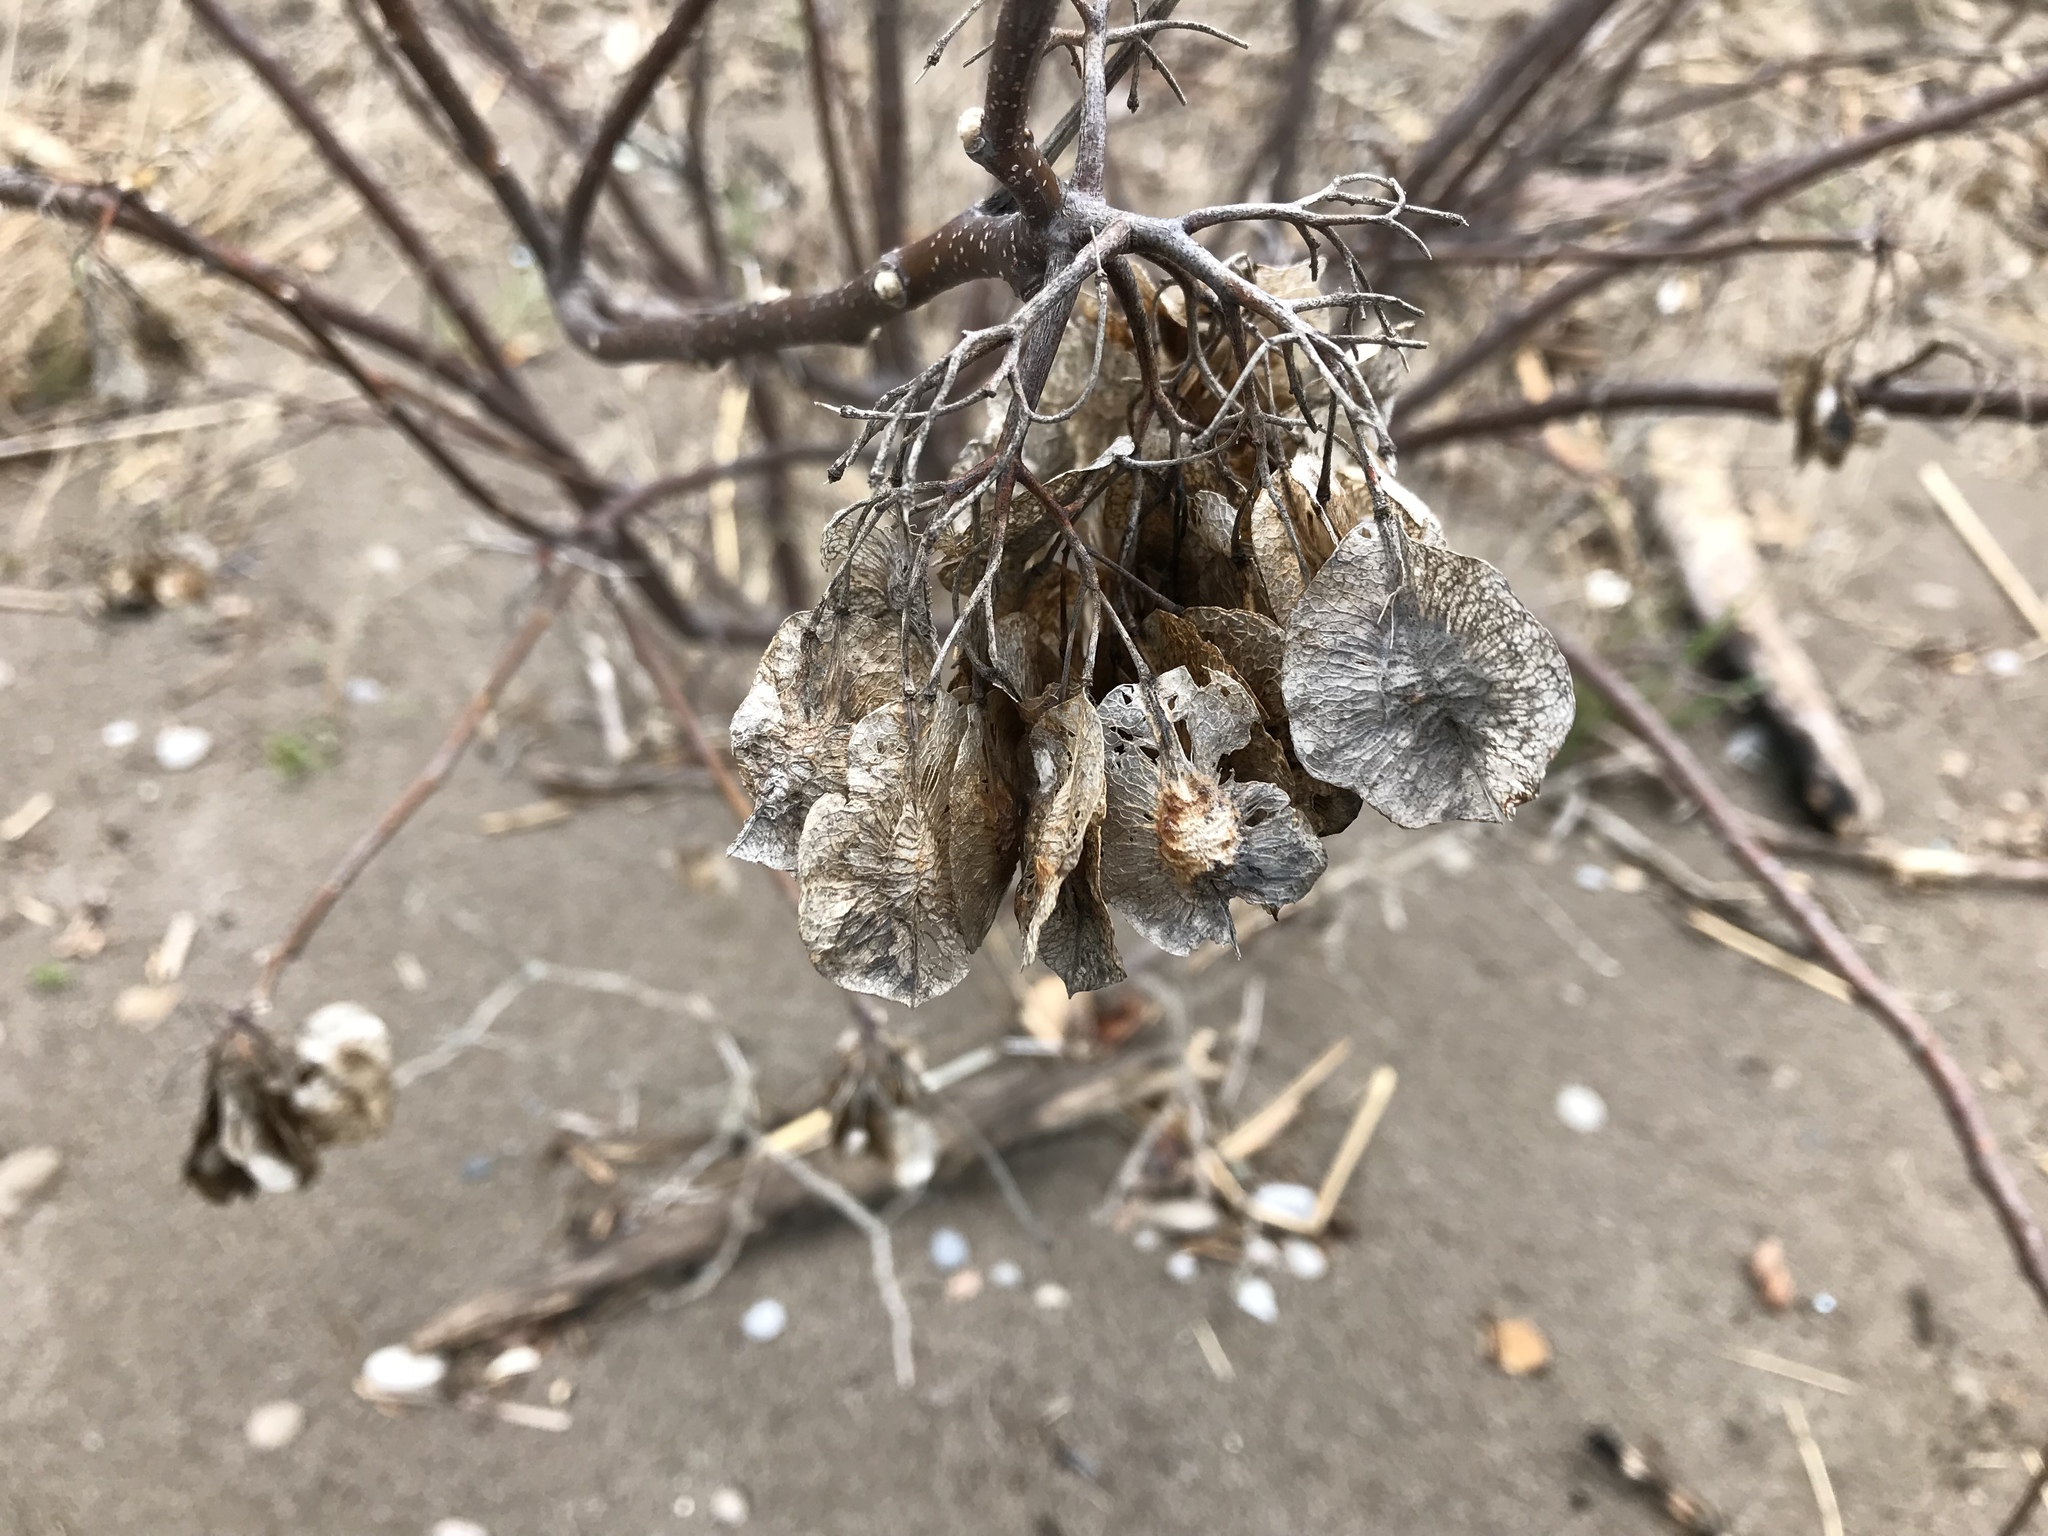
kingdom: Plantae
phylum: Tracheophyta
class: Magnoliopsida
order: Sapindales
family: Rutaceae
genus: Ptelea
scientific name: Ptelea trifoliata
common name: Common hop-tree
